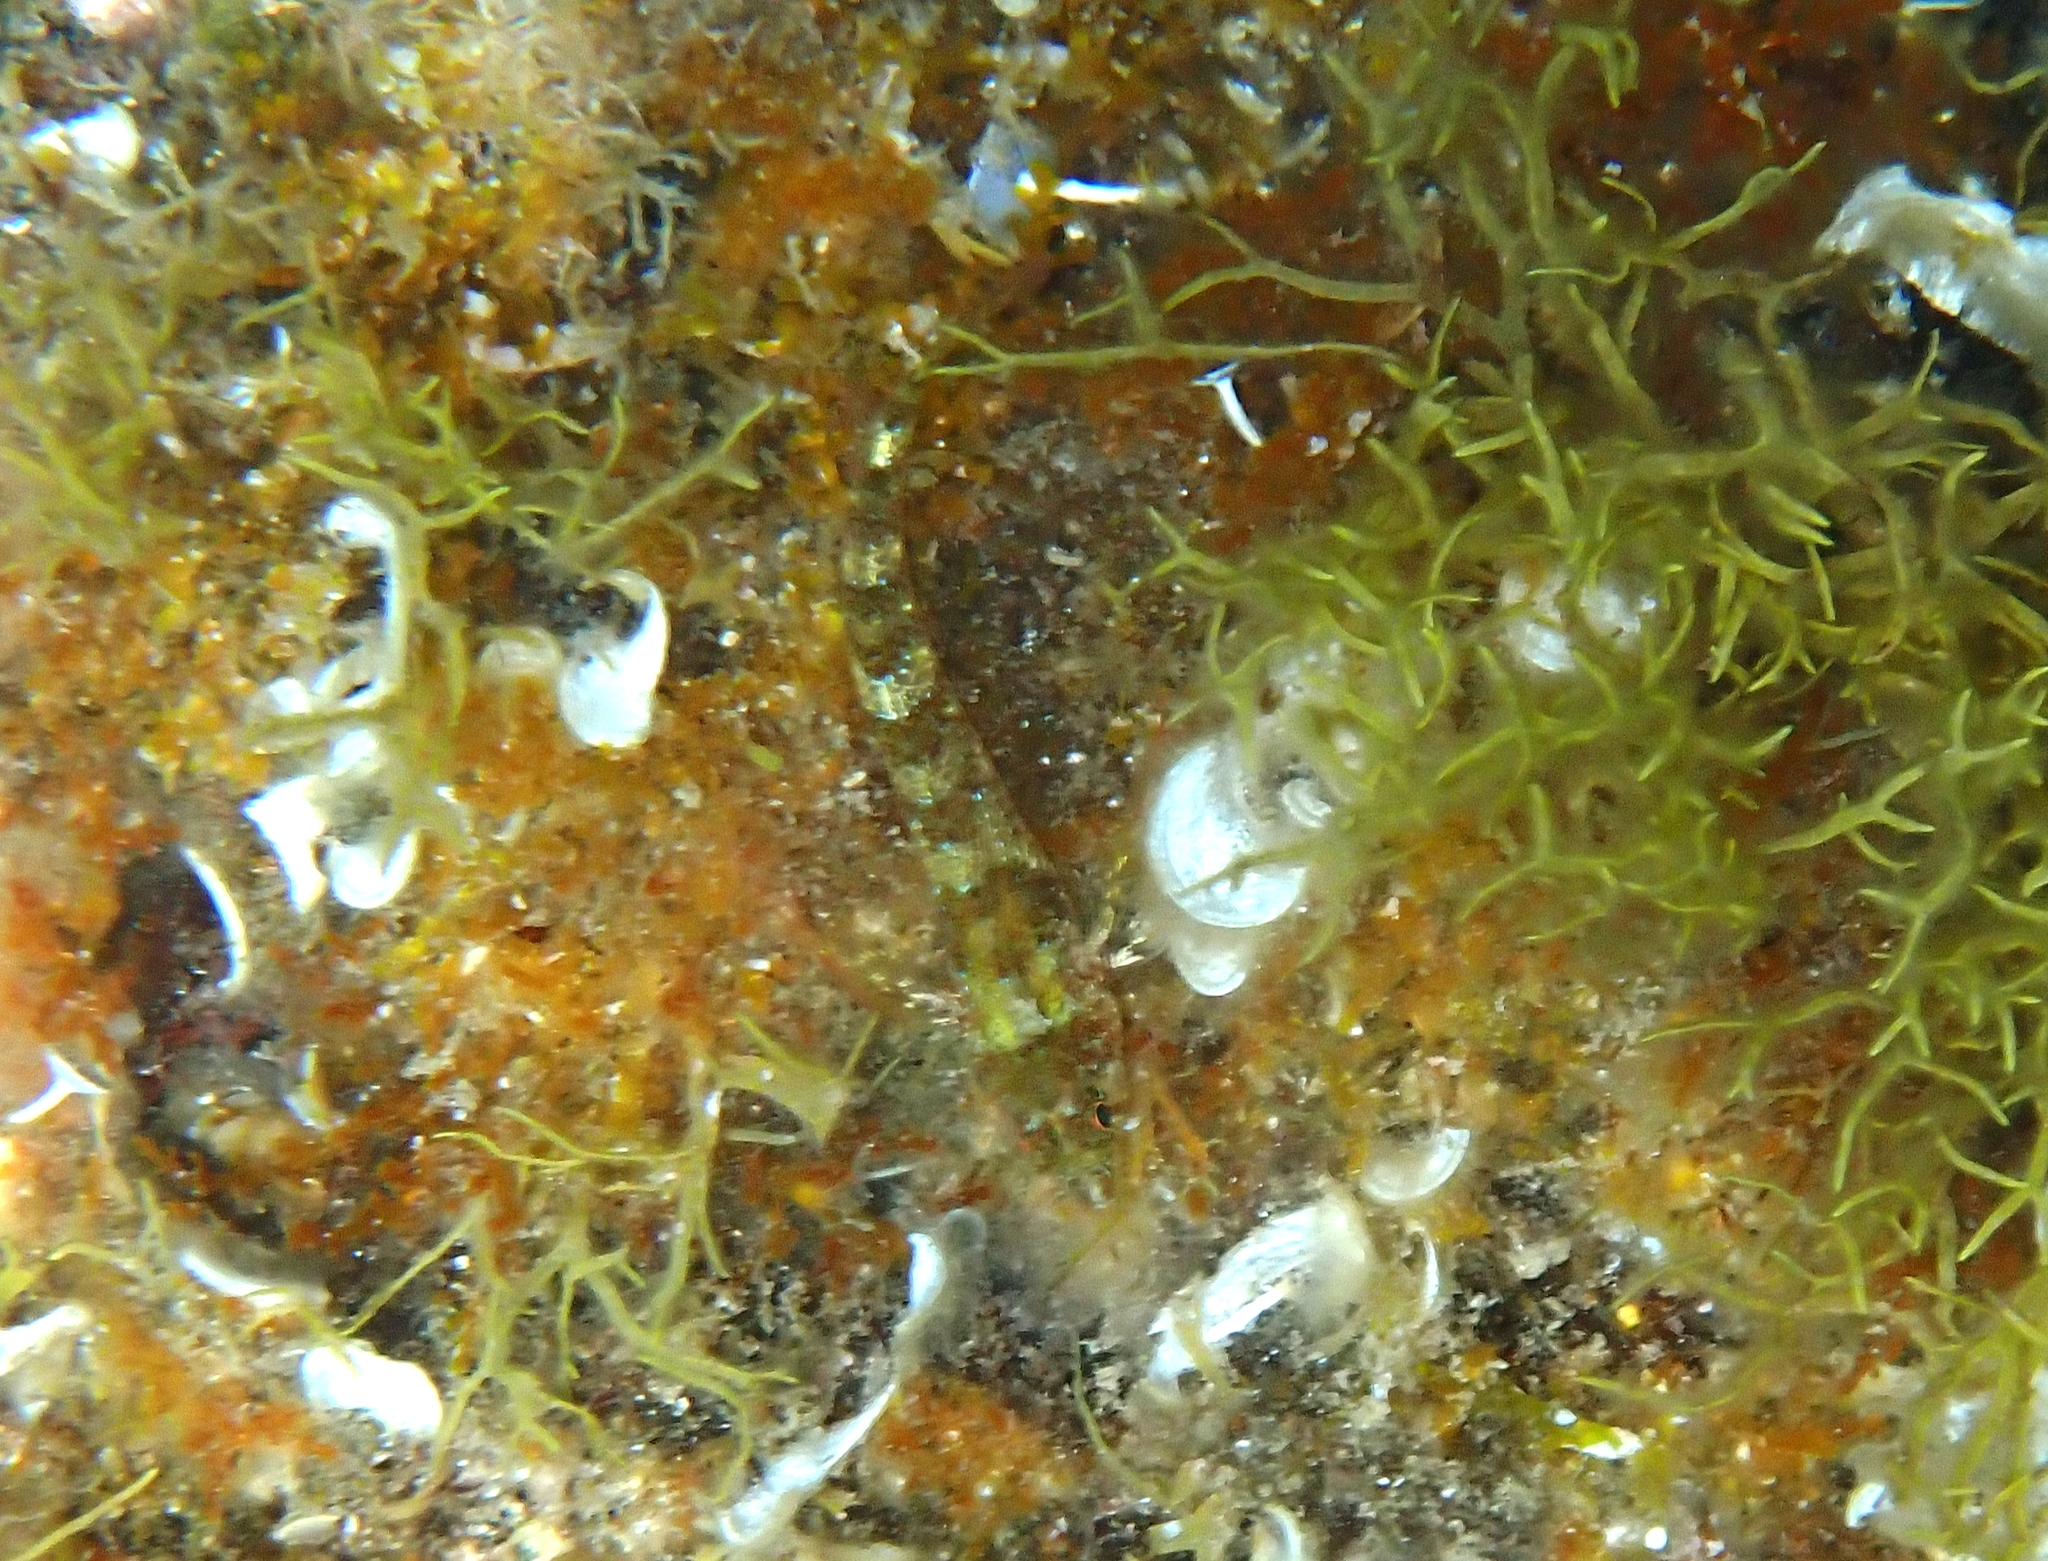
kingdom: Animalia
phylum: Chordata
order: Perciformes
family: Tripterygiidae
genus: Tripterygion
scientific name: Tripterygion tripteronotum
